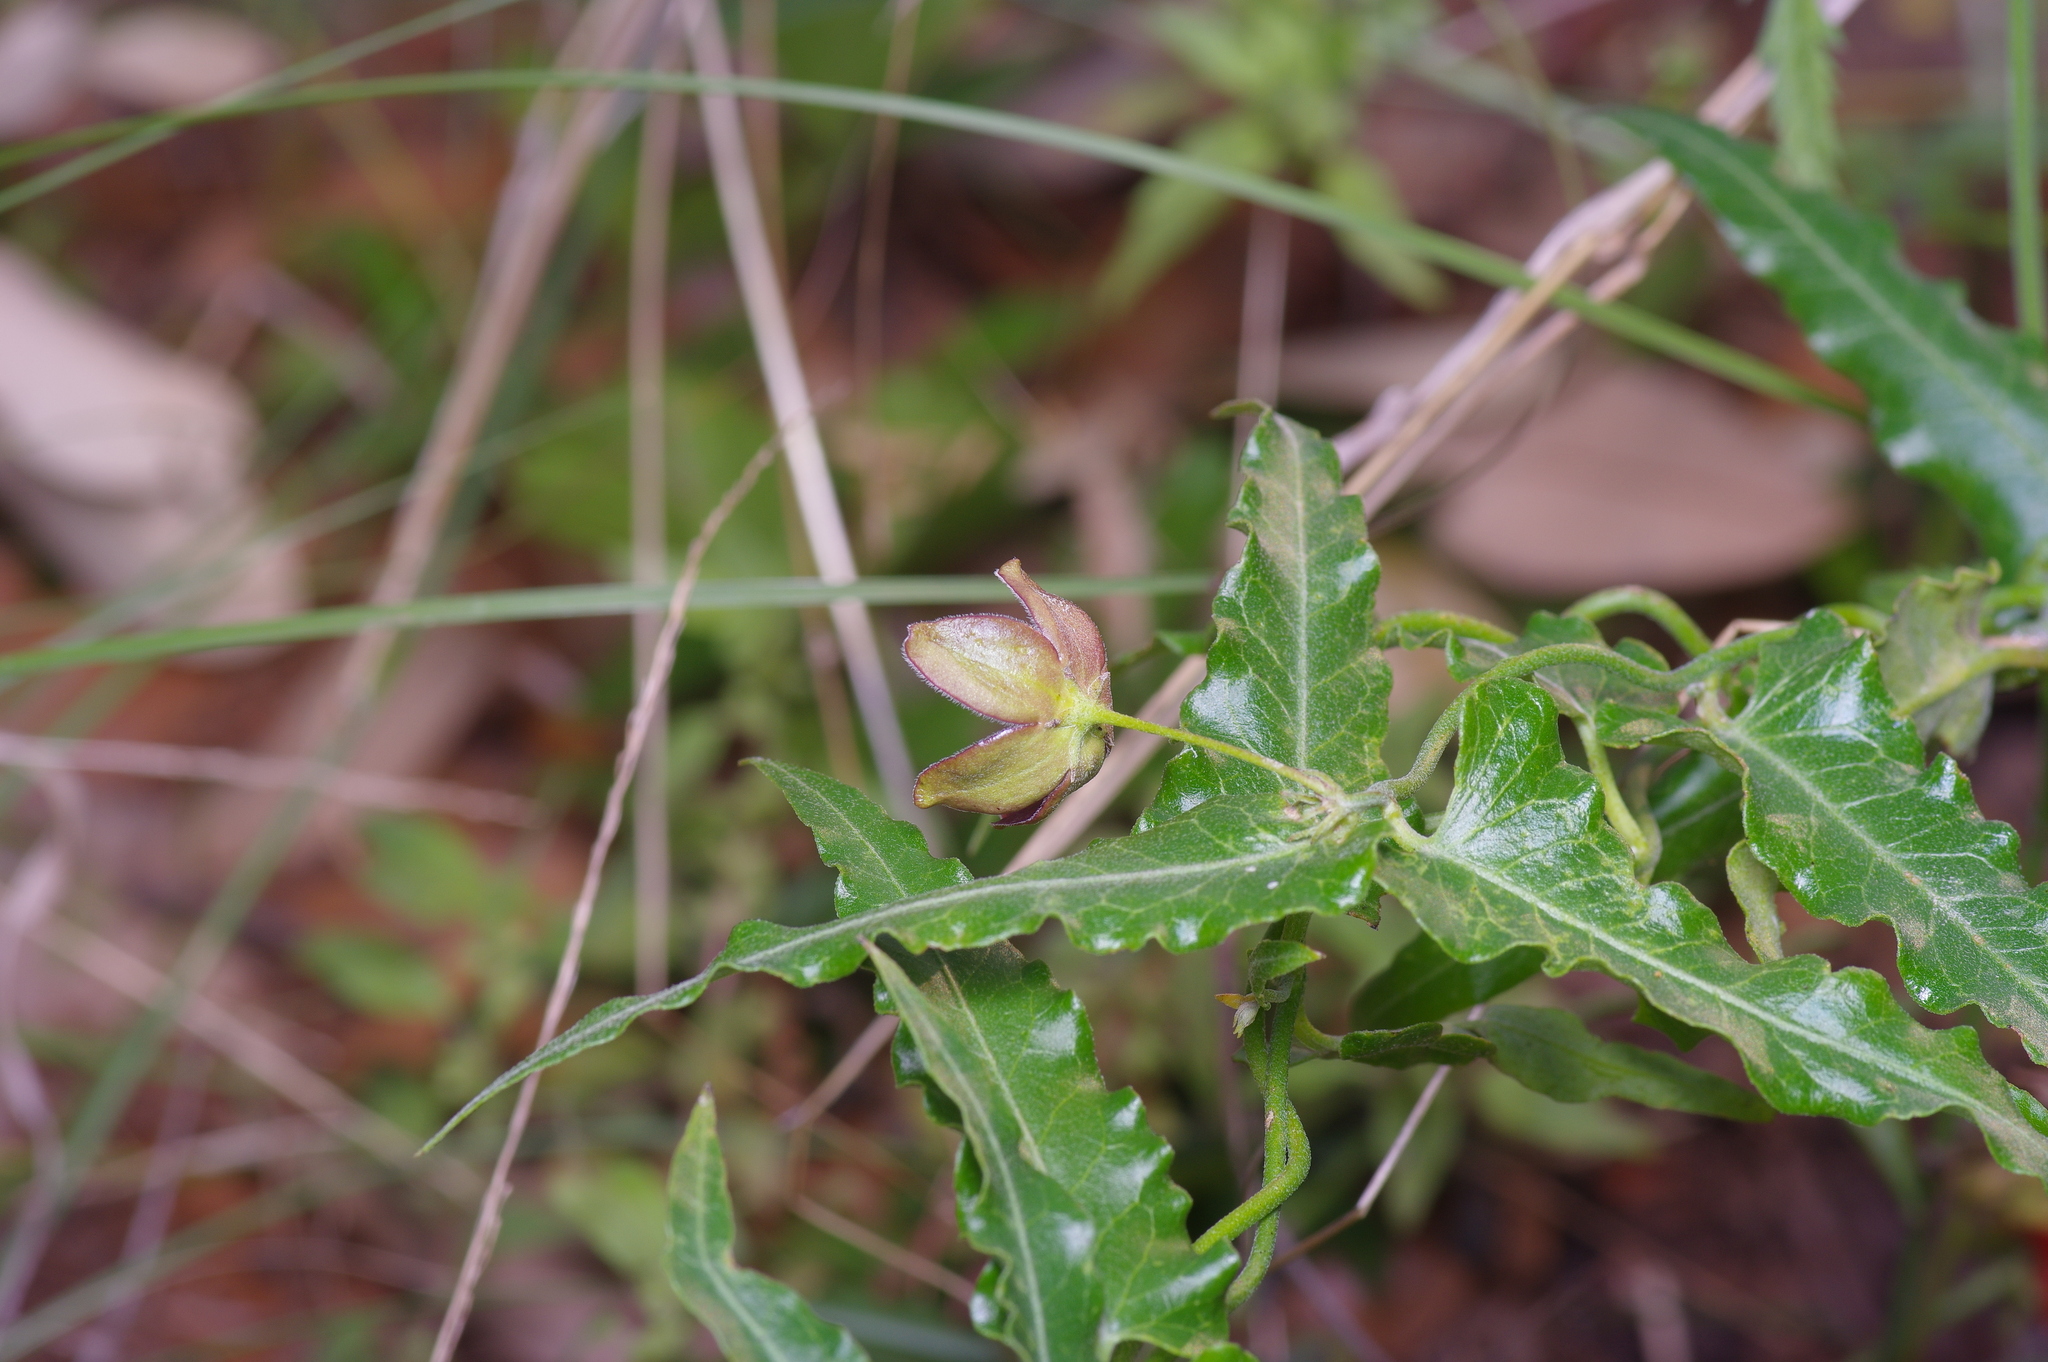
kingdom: Plantae
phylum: Tracheophyta
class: Magnoliopsida
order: Gentianales
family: Apocynaceae
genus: Funastrum
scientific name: Funastrum crispum
